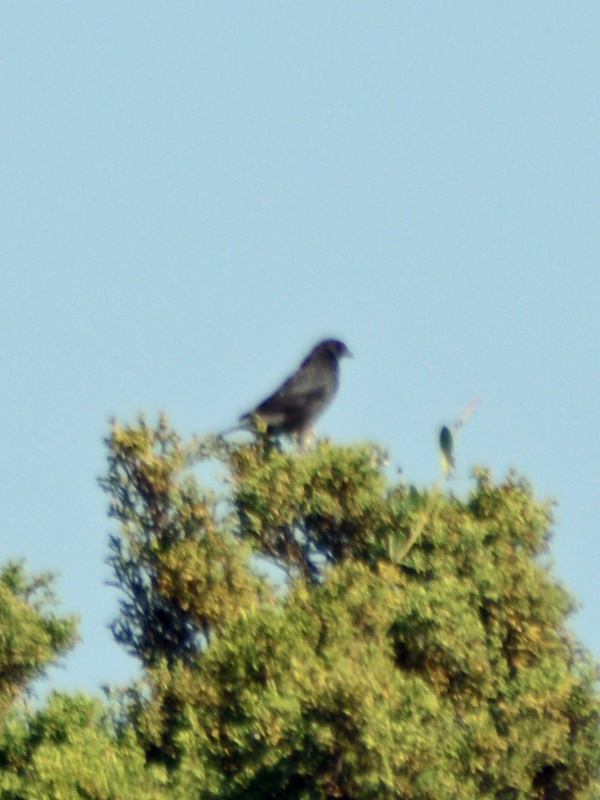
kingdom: Animalia
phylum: Chordata
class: Aves
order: Passeriformes
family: Icteridae
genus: Molothrus
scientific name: Molothrus aeneus
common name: Bronzed cowbird
